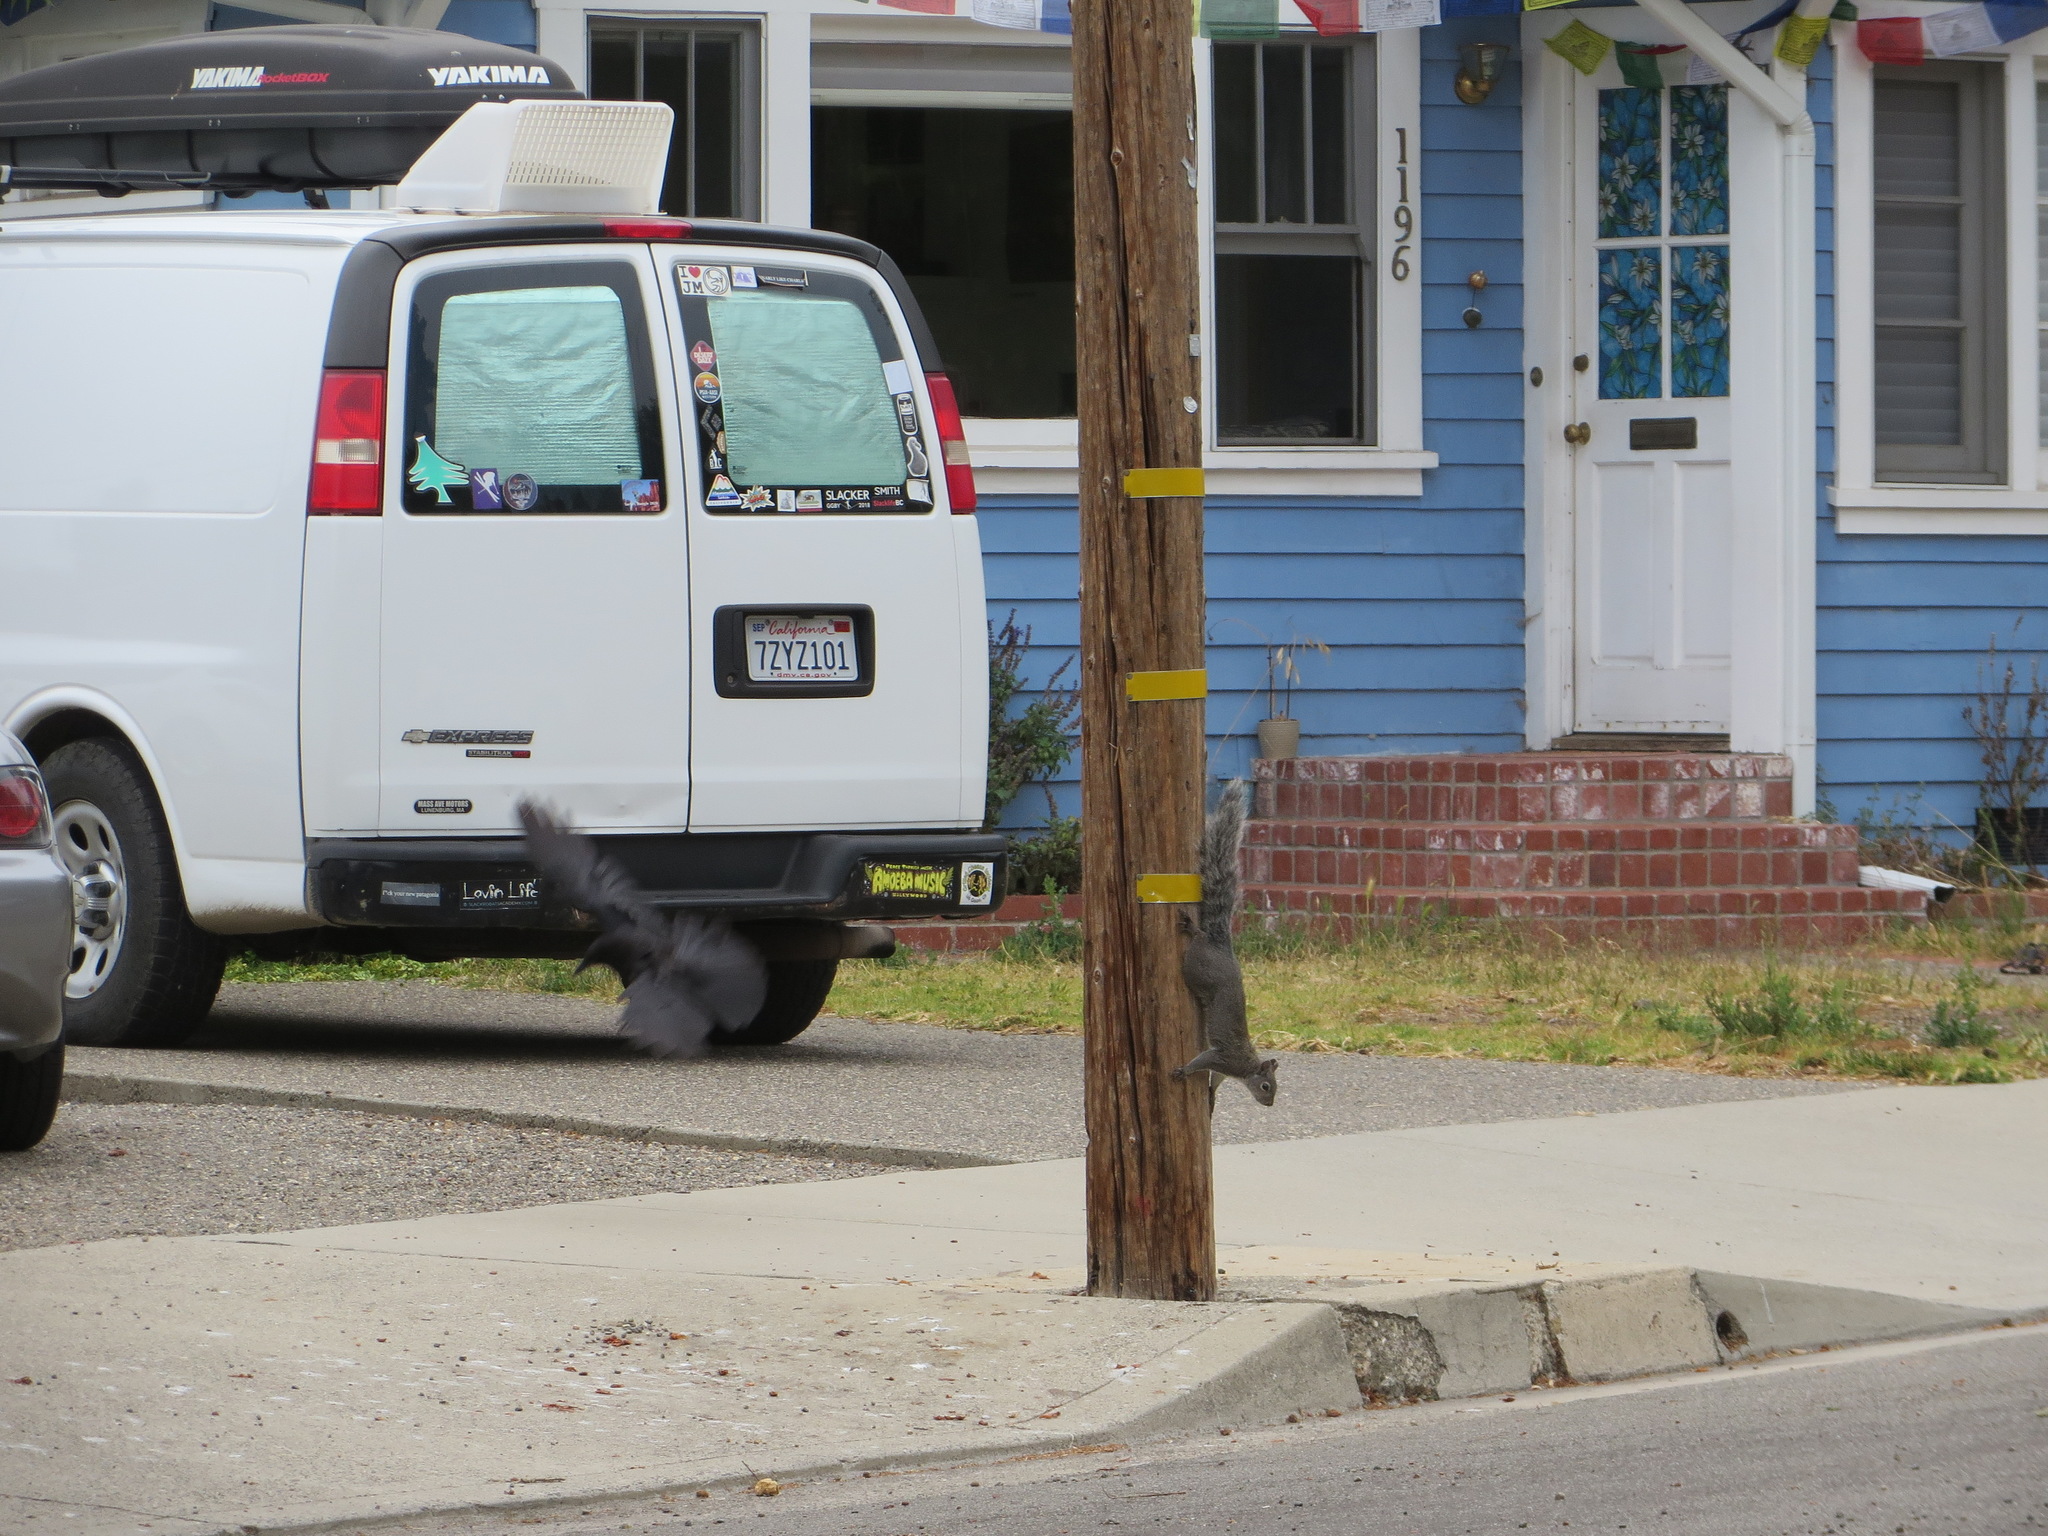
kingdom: Animalia
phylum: Chordata
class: Mammalia
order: Rodentia
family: Sciuridae
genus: Sciurus
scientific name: Sciurus griseus
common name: Western gray squirrel
